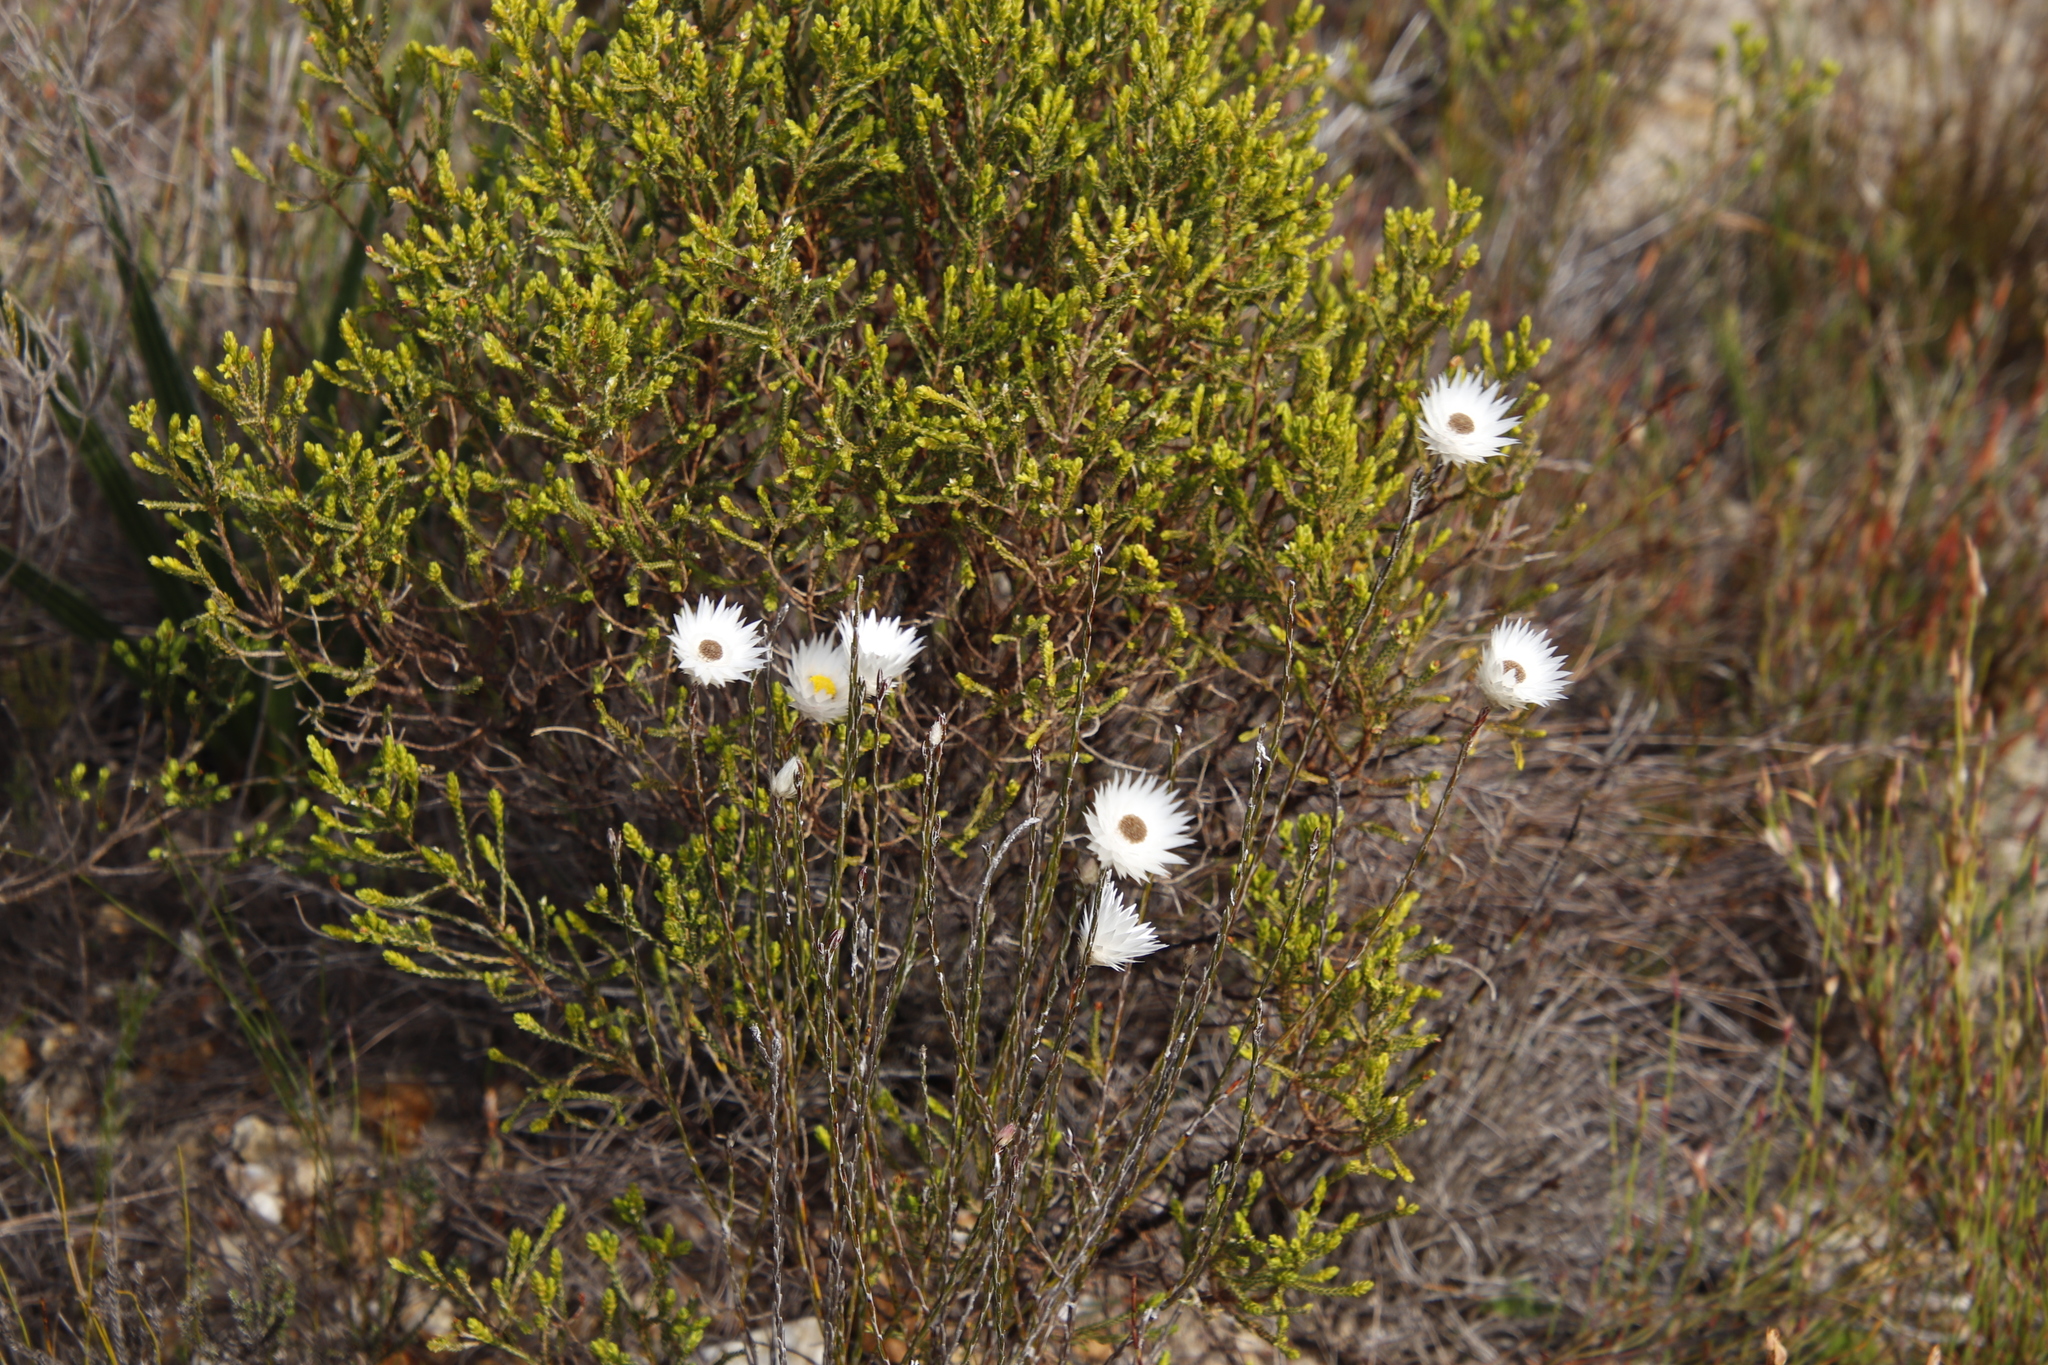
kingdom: Plantae
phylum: Tracheophyta
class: Magnoliopsida
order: Asterales
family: Asteraceae
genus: Edmondia
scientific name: Edmondia sesamoides
